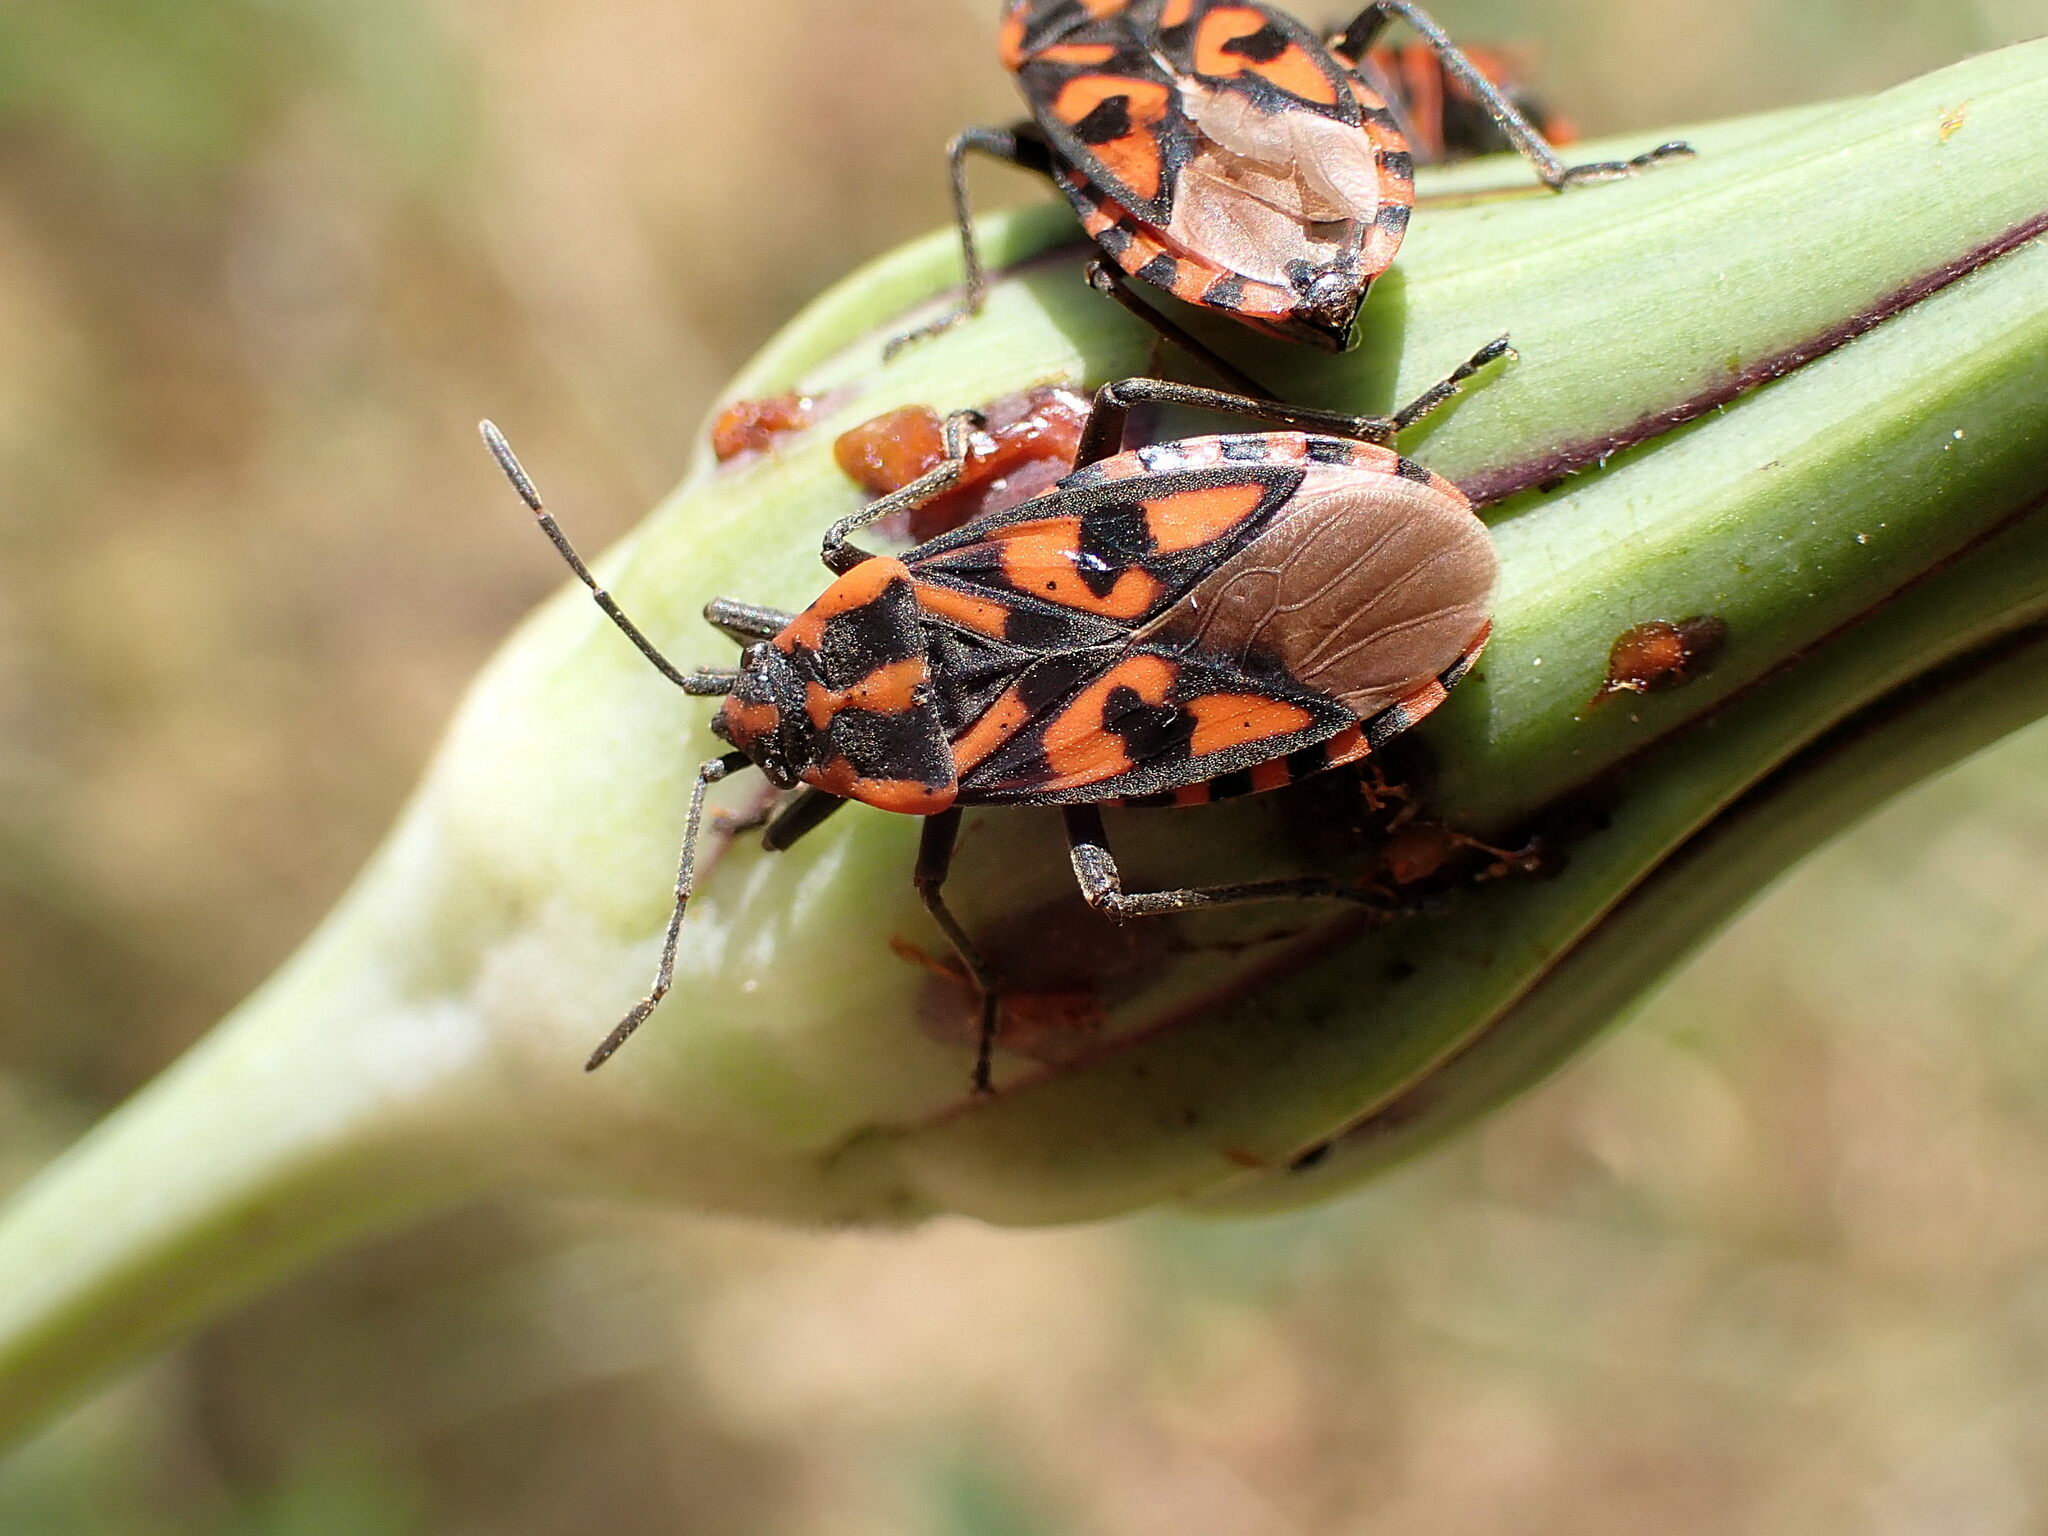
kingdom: Animalia
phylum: Arthropoda
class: Insecta
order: Hemiptera
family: Lygaeidae
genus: Spilostethus
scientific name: Spilostethus saxatilis
